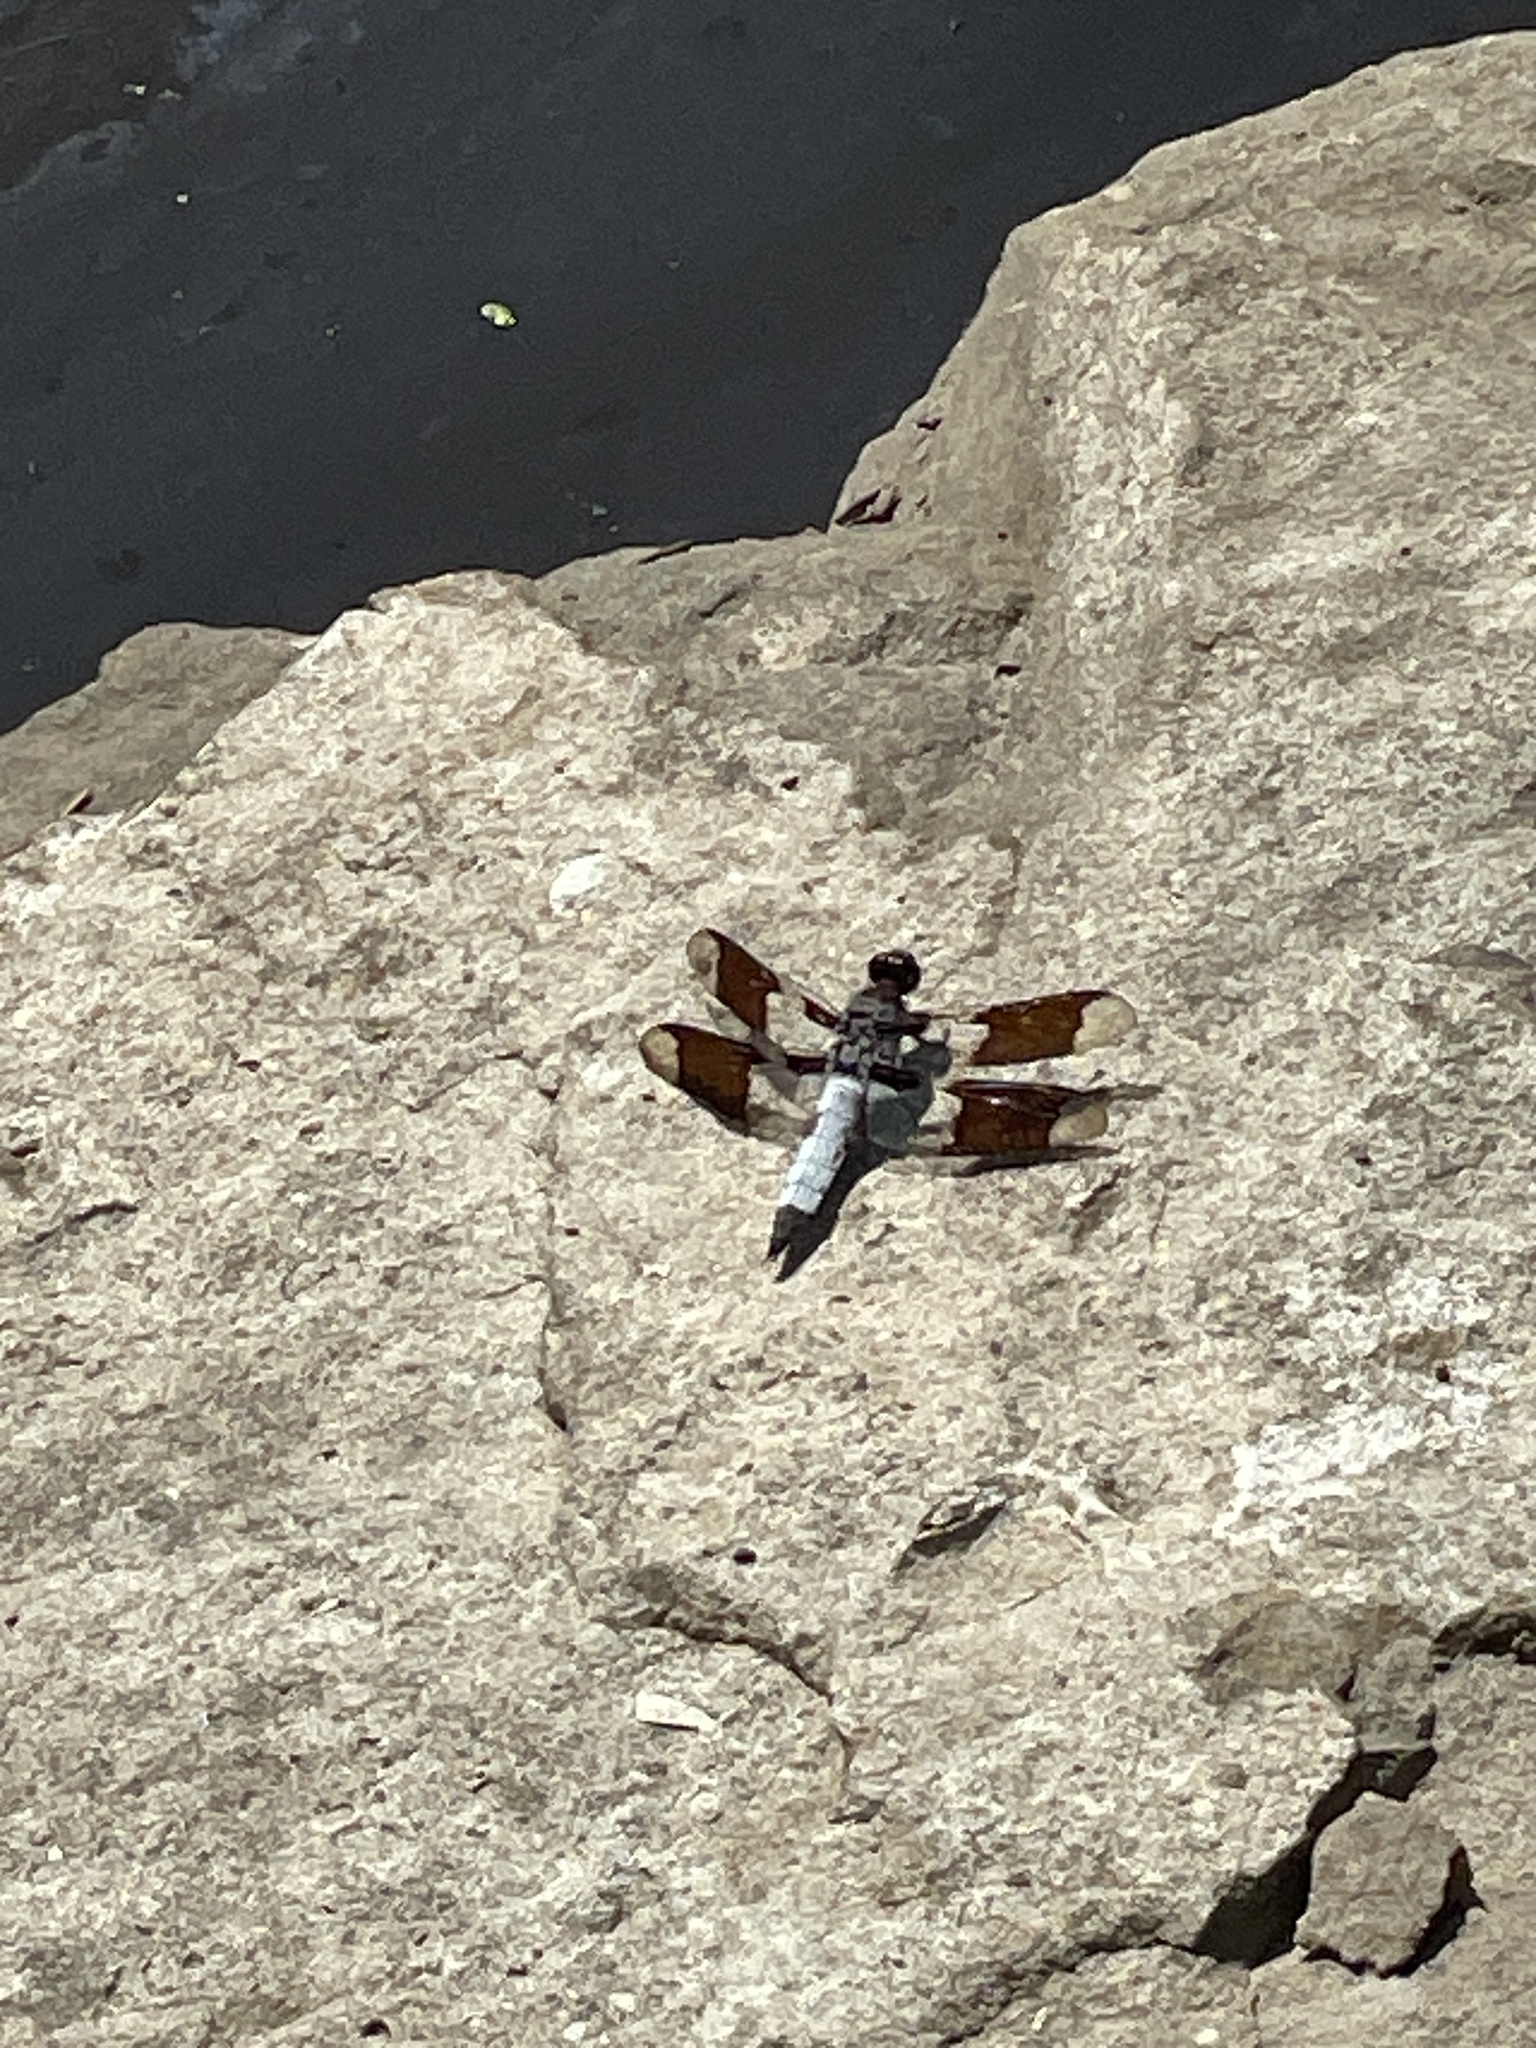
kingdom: Animalia
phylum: Arthropoda
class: Insecta
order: Odonata
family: Libellulidae
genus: Plathemis
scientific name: Plathemis lydia
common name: Common whitetail
